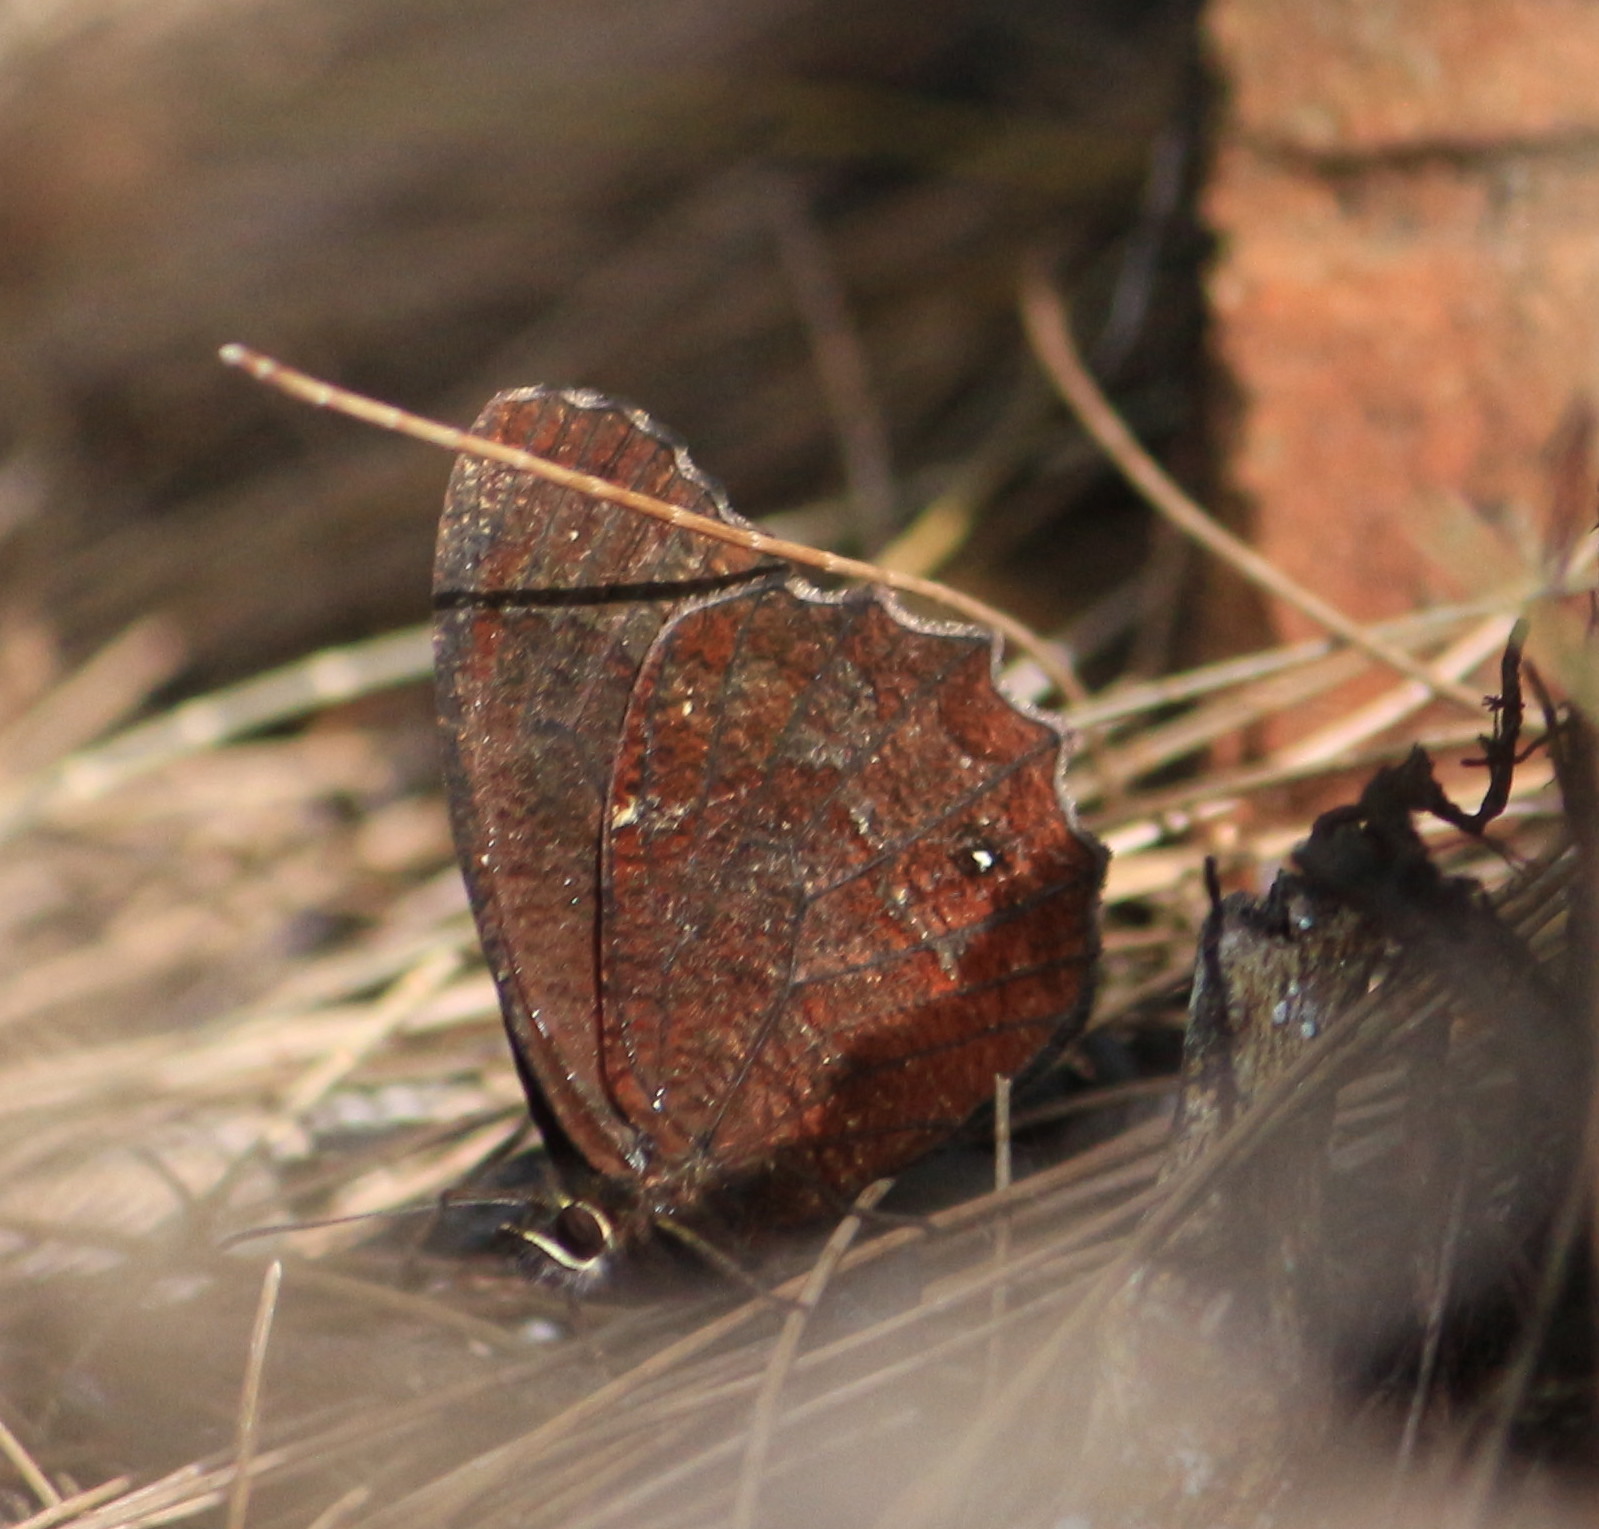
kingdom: Animalia
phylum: Arthropoda
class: Insecta
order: Lepidoptera
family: Nymphalidae
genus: Pedaliodes
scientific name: Pedaliodes pisonia
